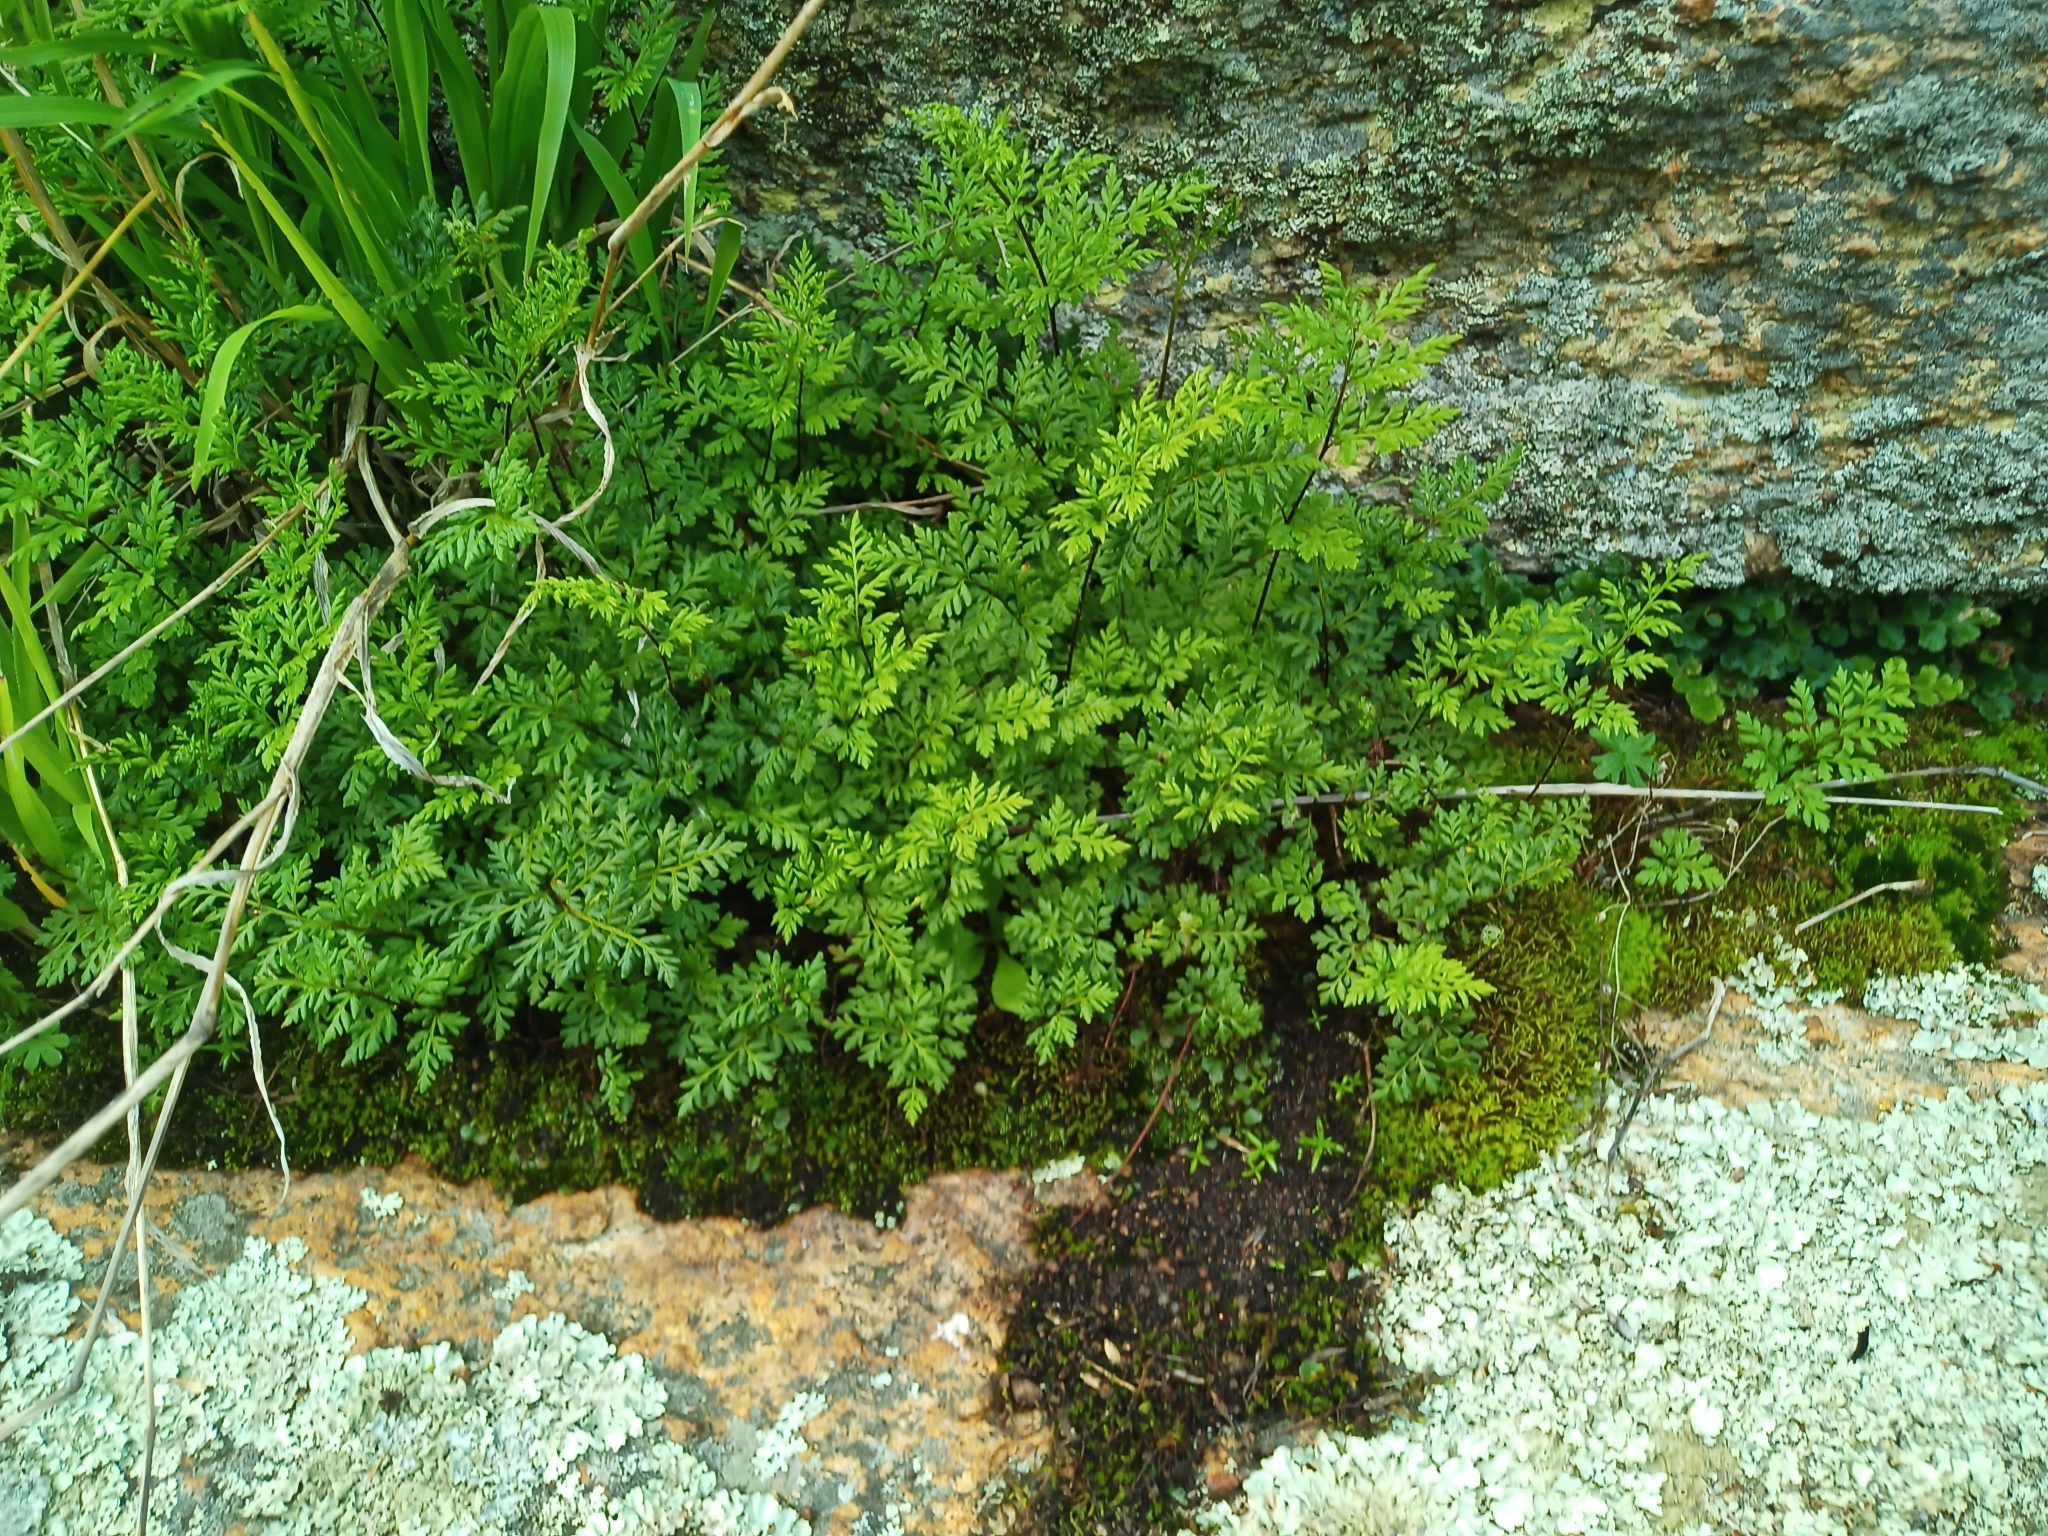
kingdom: Plantae
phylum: Tracheophyta
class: Polypodiopsida
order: Polypodiales
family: Pteridaceae
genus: Cheilanthes
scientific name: Cheilanthes austrotenuifolia
